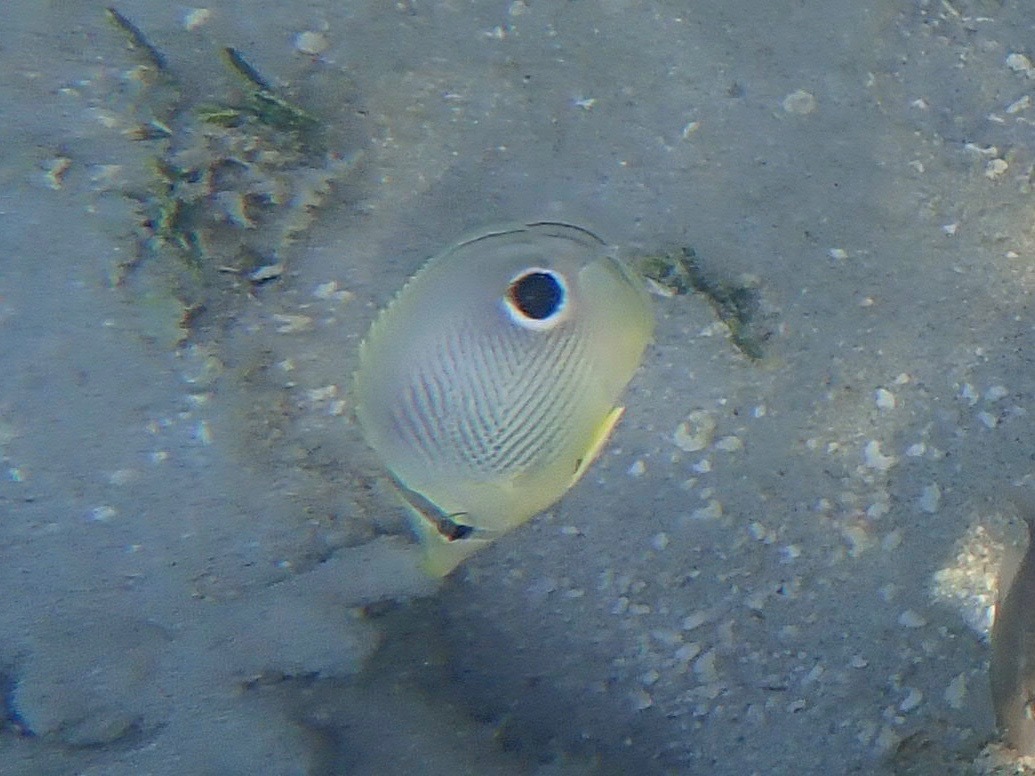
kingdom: Animalia
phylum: Chordata
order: Perciformes
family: Chaetodontidae
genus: Chaetodon
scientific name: Chaetodon capistratus
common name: Kete
